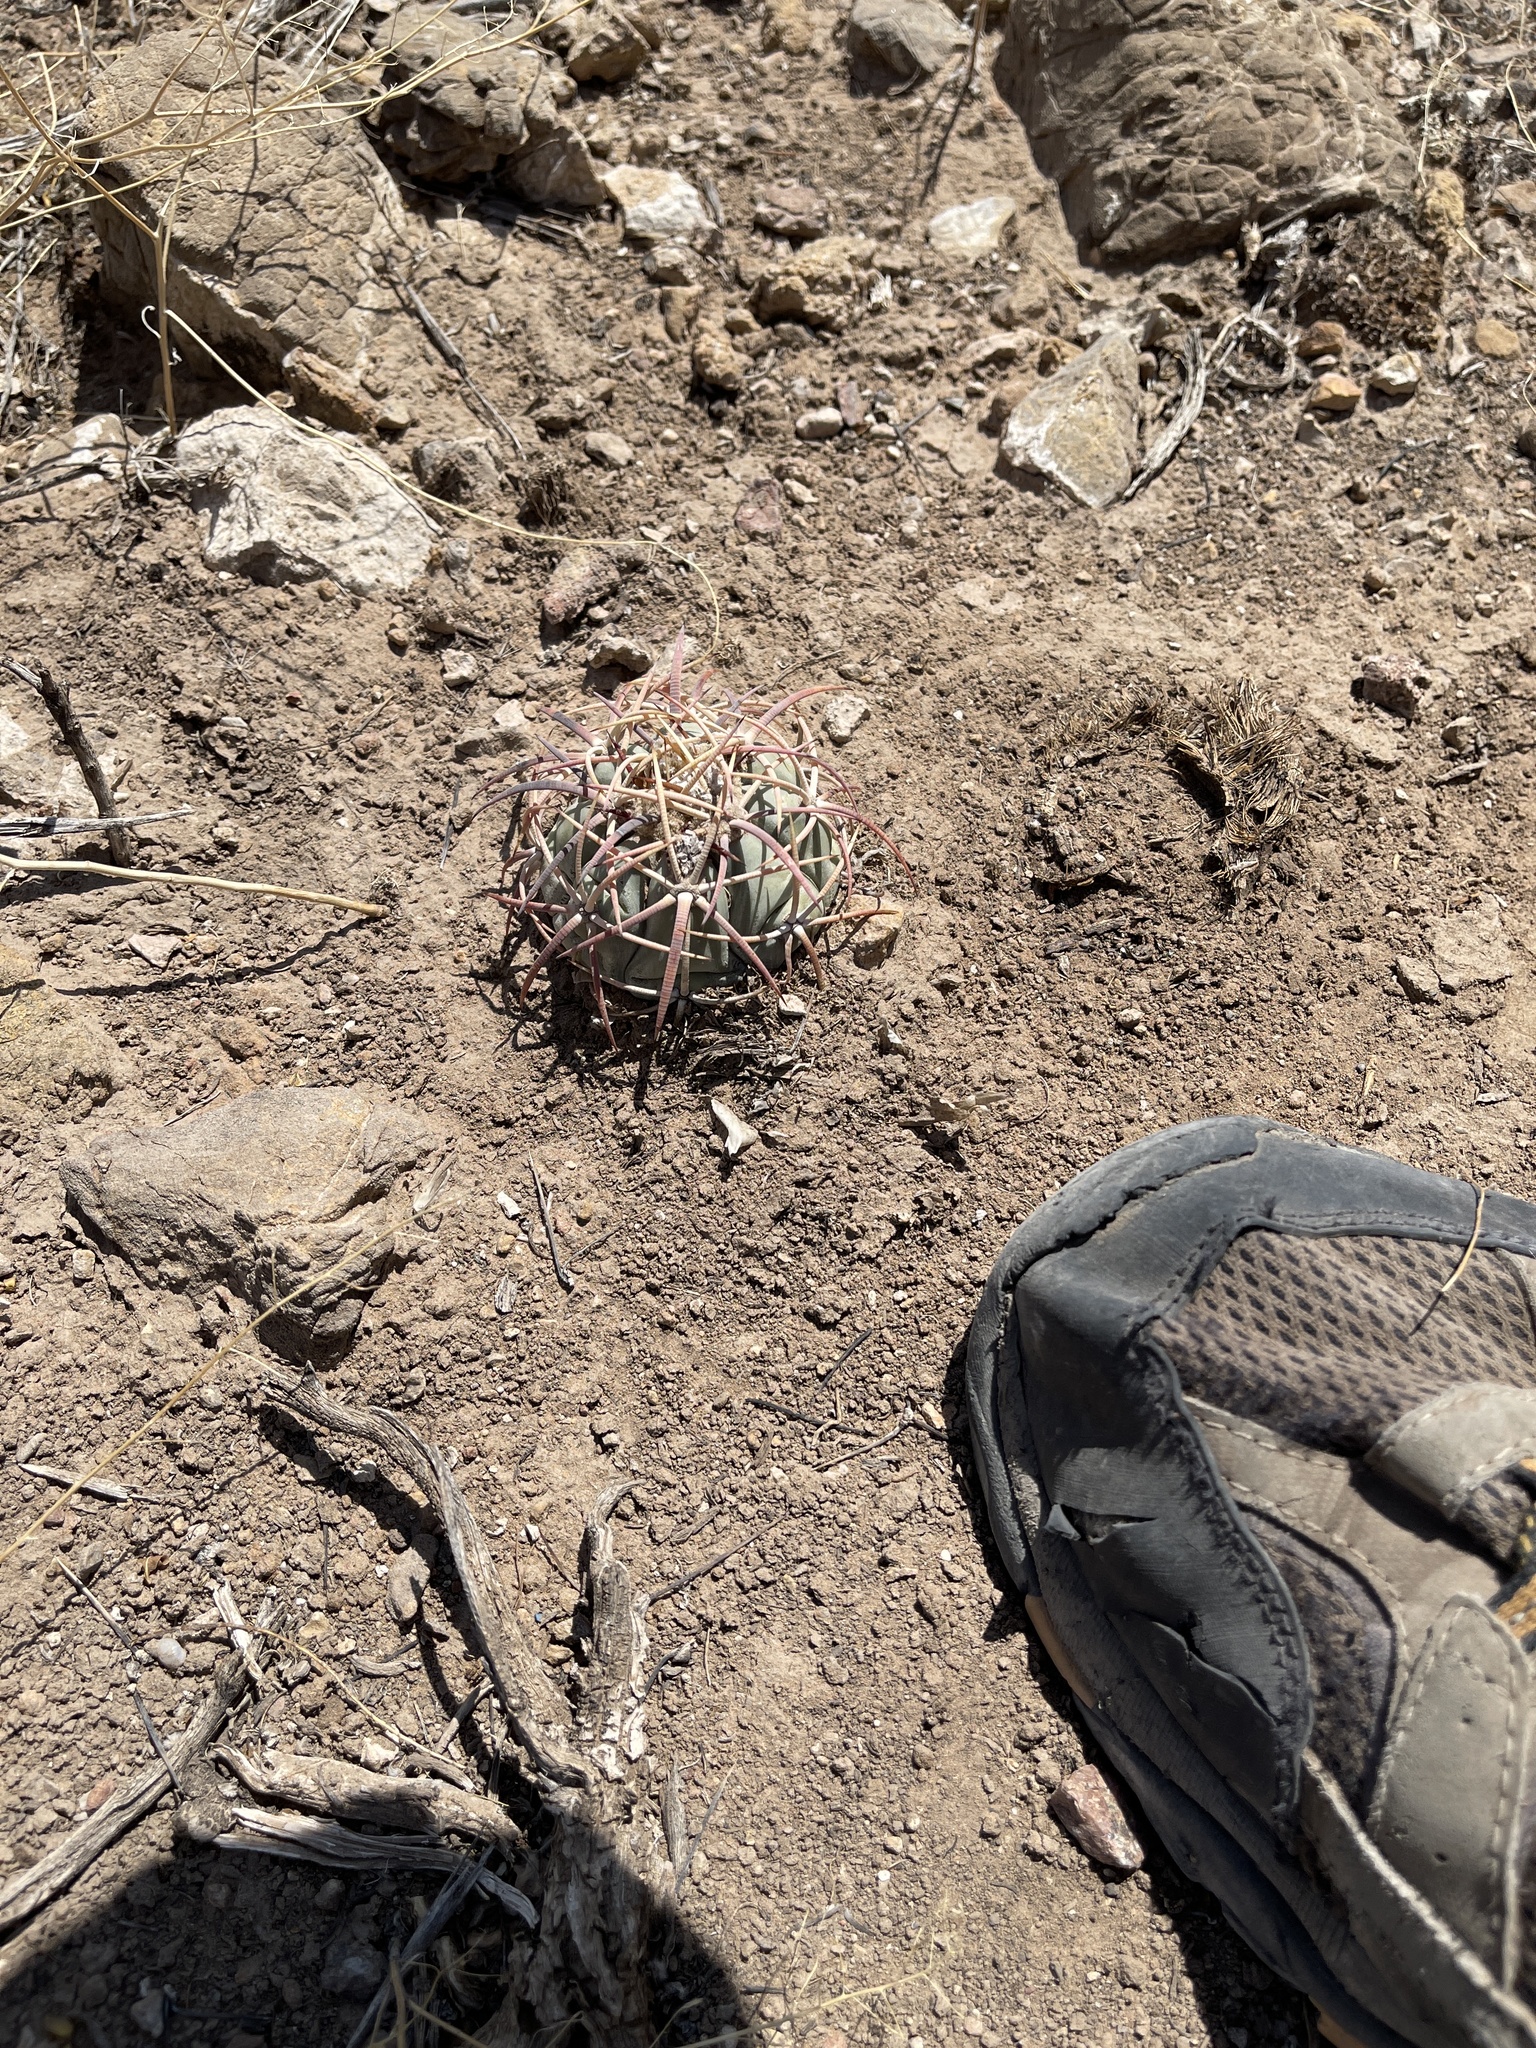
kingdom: Plantae
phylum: Tracheophyta
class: Magnoliopsida
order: Caryophyllales
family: Cactaceae
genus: Echinocactus
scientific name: Echinocactus horizonthalonius
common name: Devilshead
